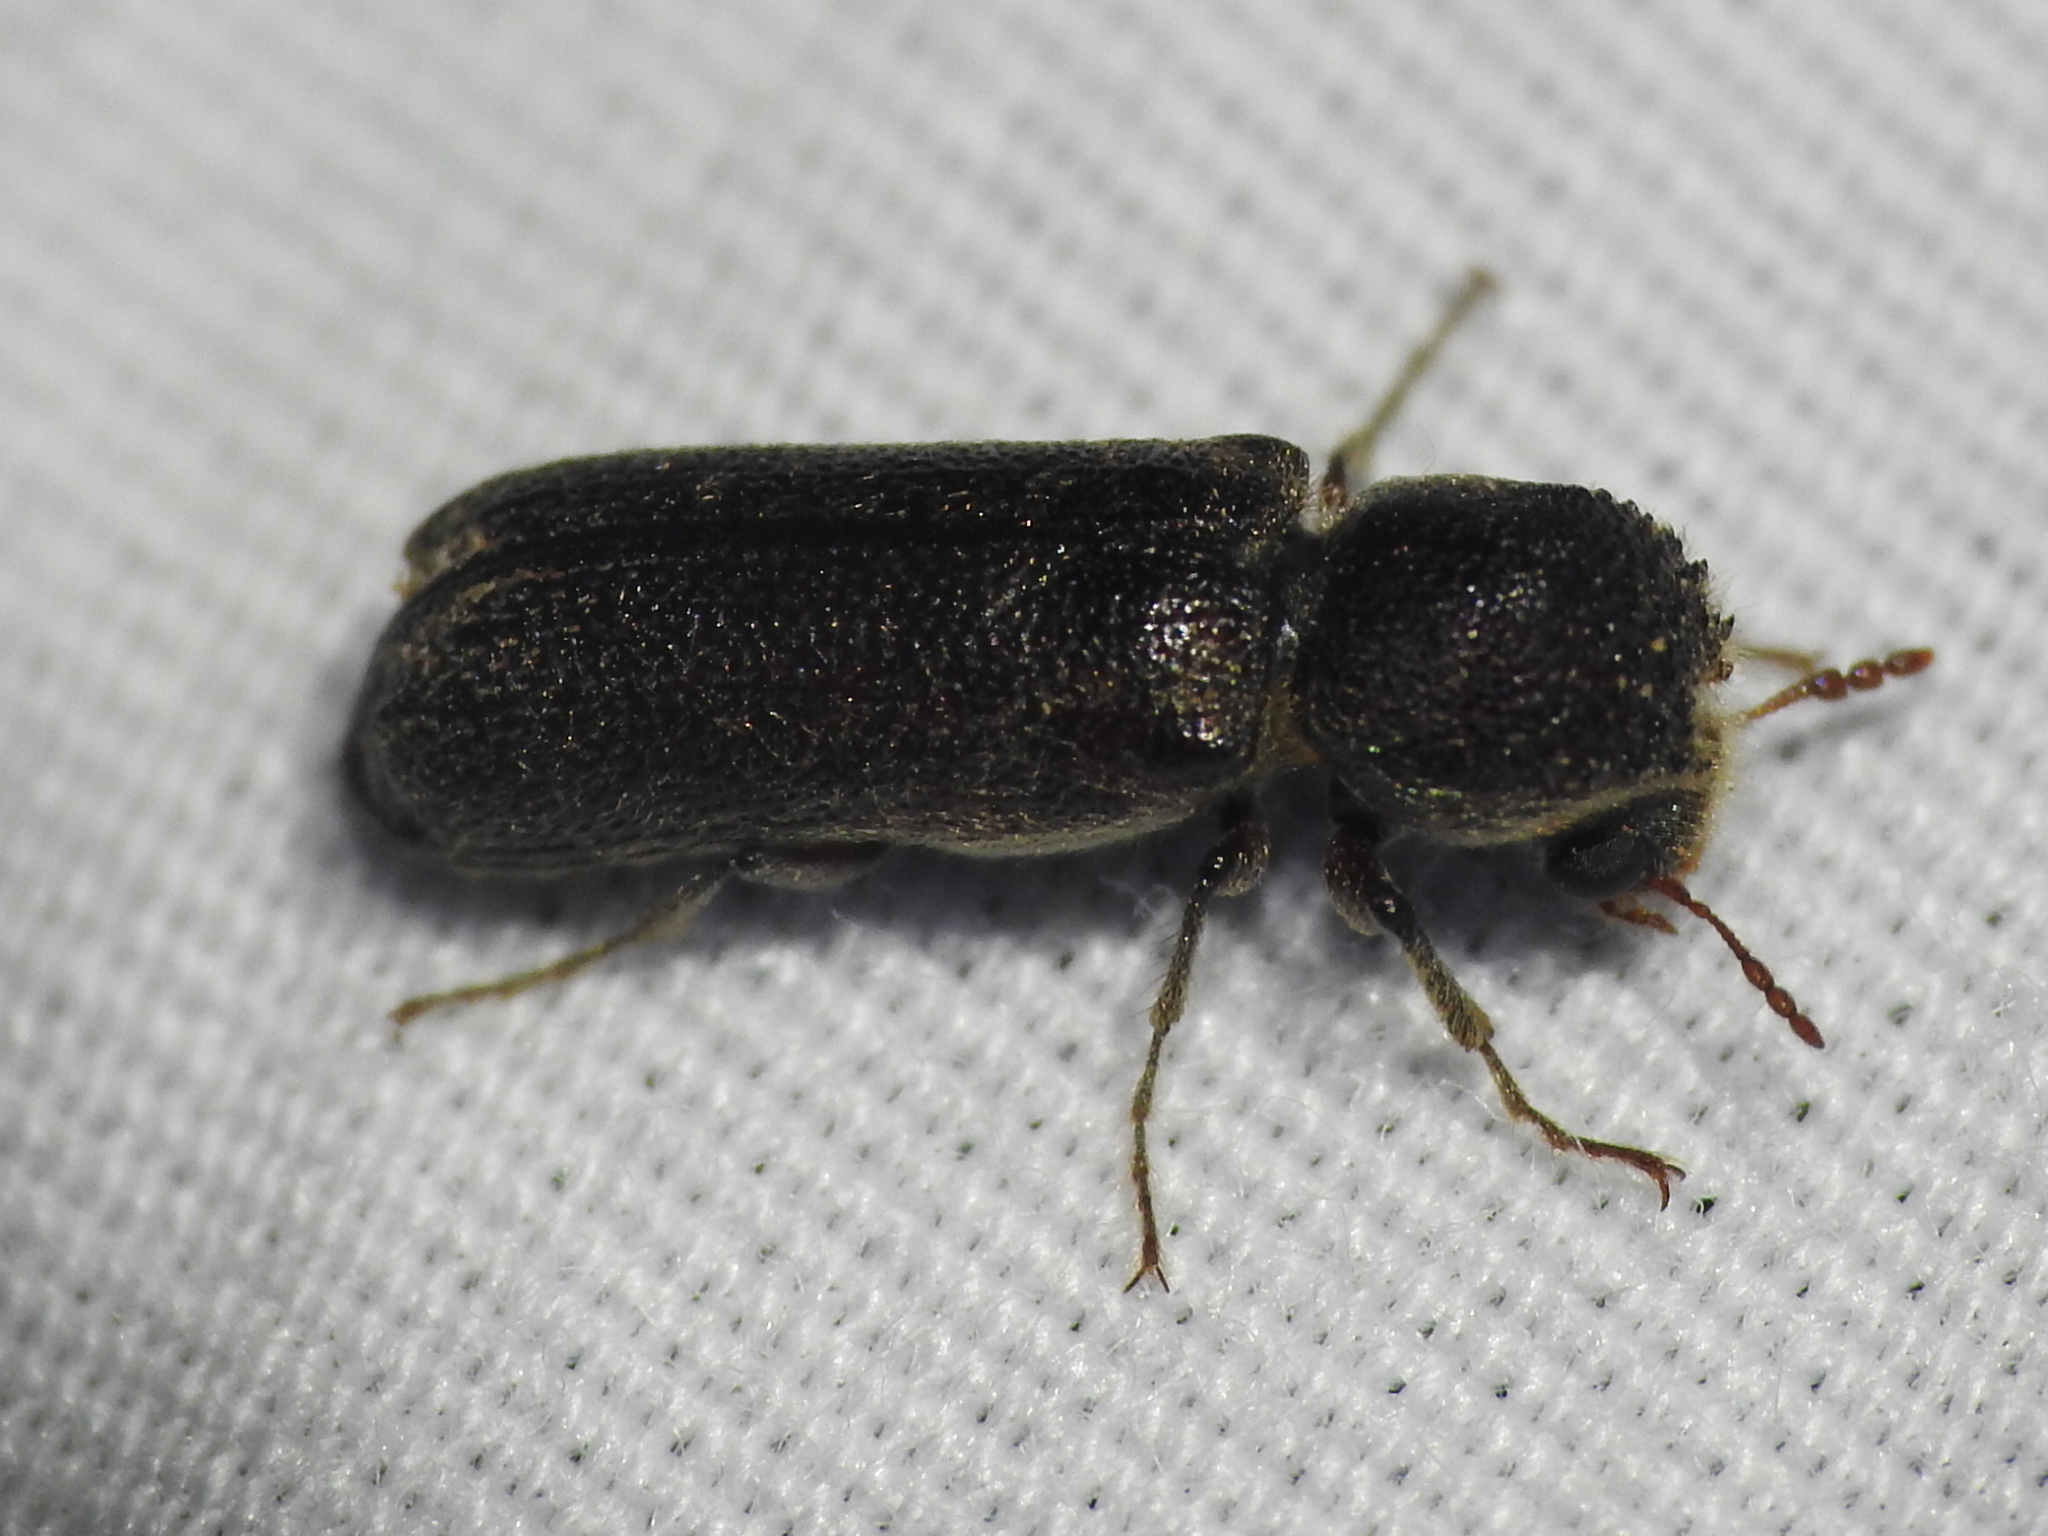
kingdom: Animalia
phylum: Arthropoda
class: Insecta
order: Coleoptera
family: Bostrichidae
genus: Amphicerus
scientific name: Amphicerus bicaudatus
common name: Apple twig borer
